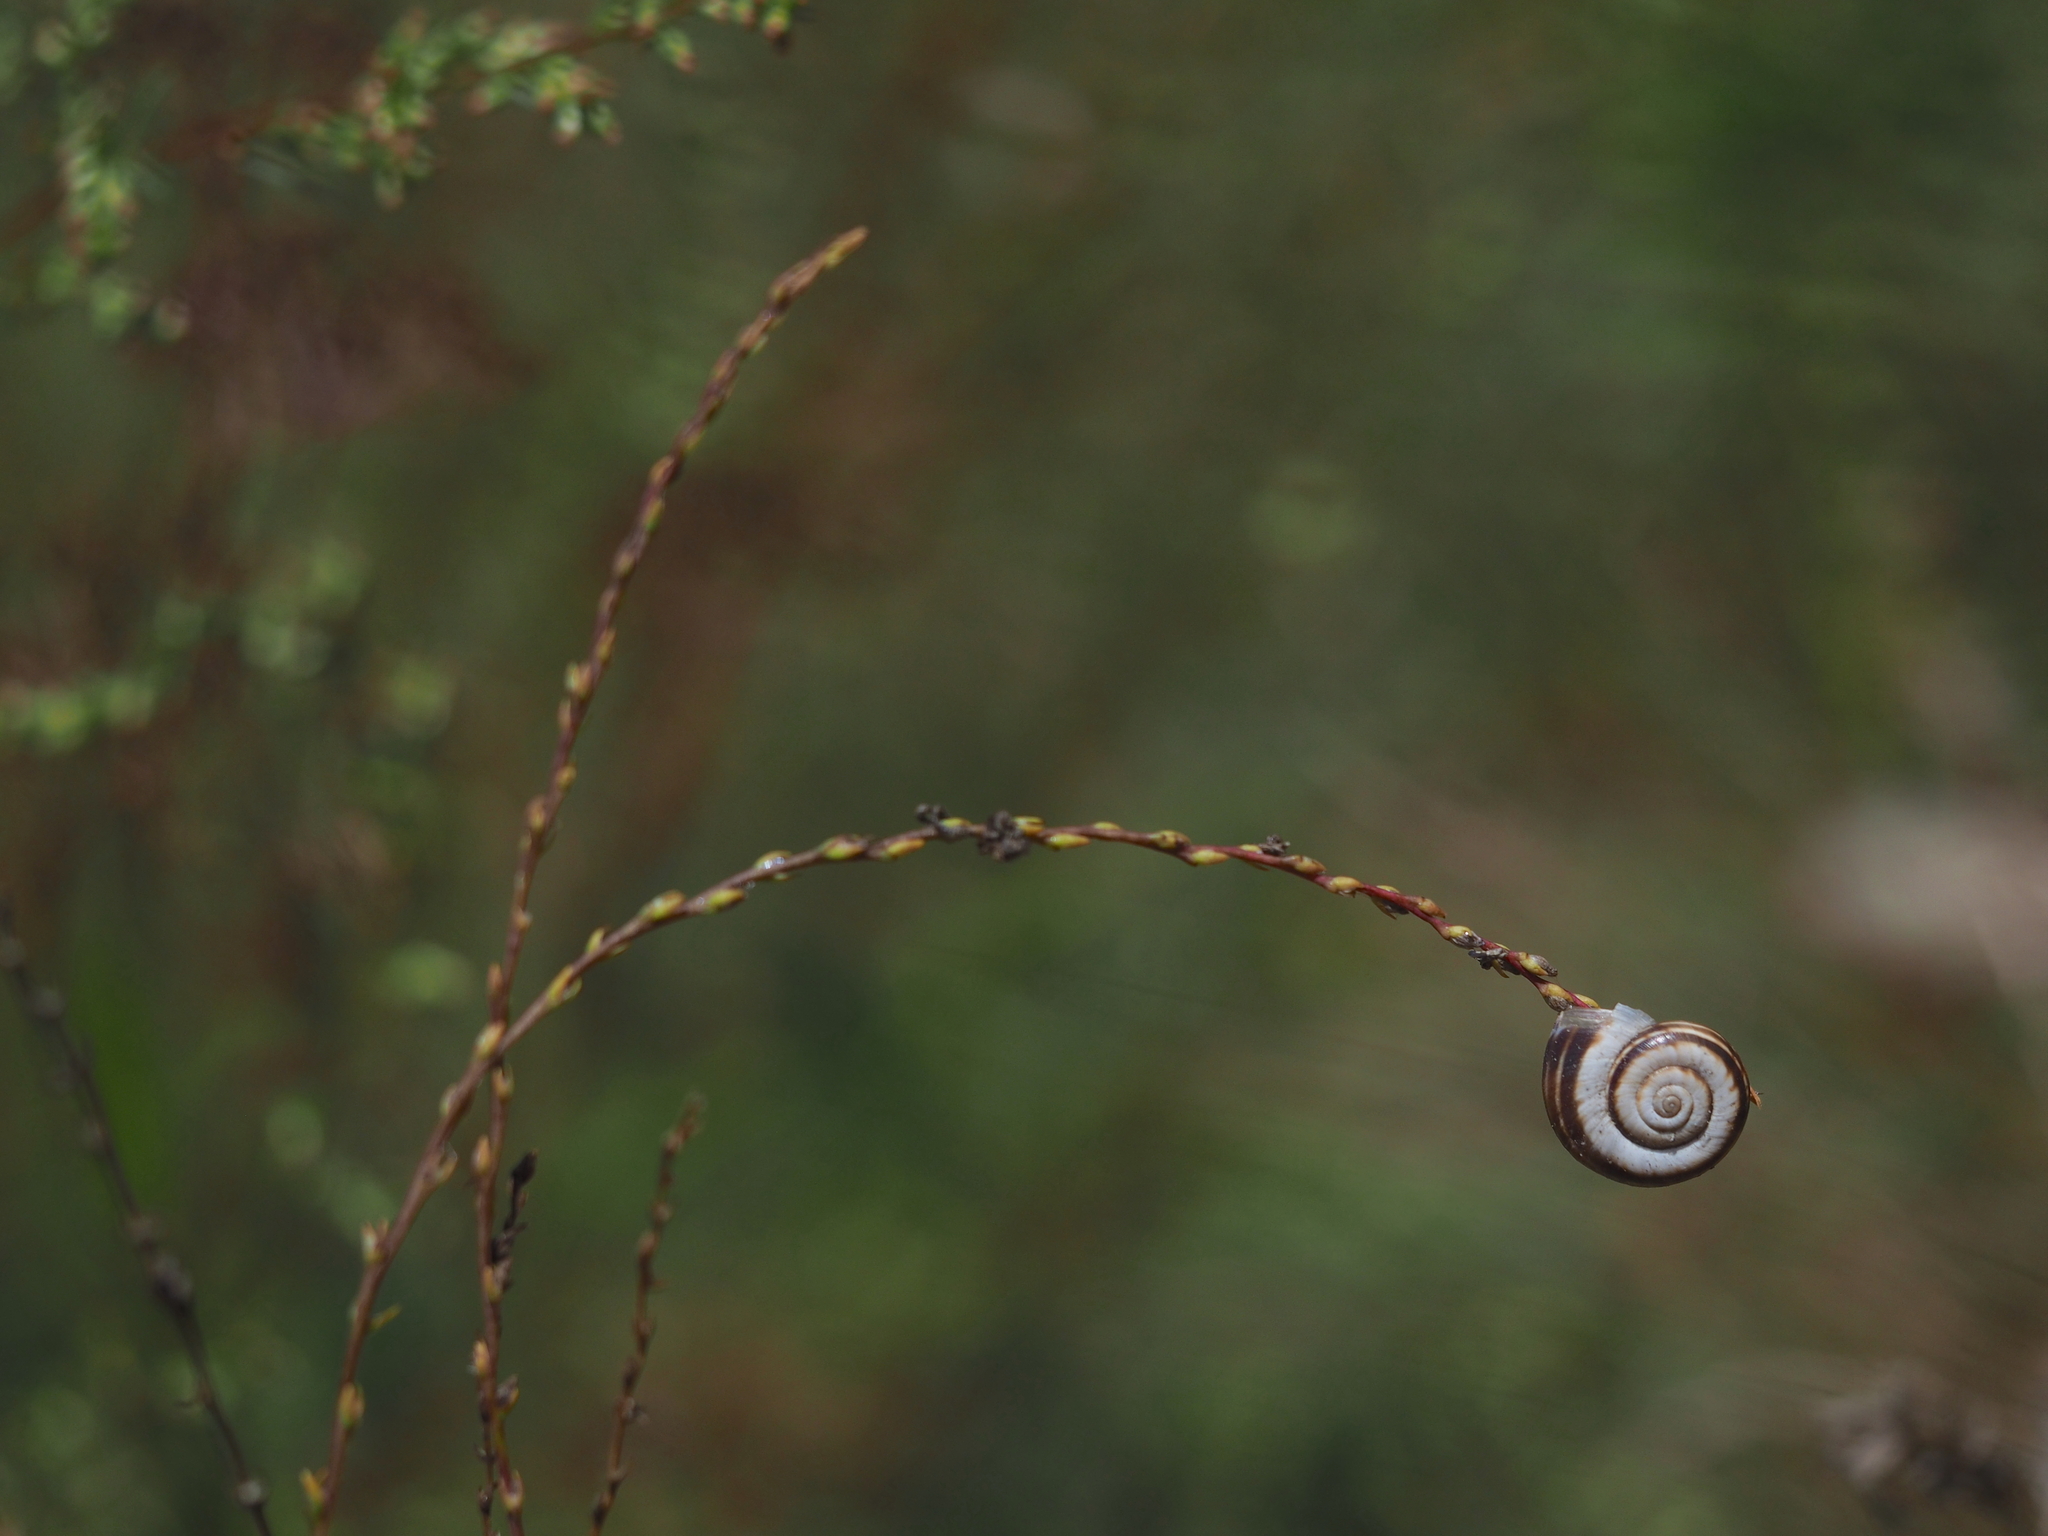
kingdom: Plantae
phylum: Tracheophyta
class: Magnoliopsida
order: Malvales
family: Thymelaeaceae
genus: Thymelaea
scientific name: Thymelaea passerina
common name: Annual thymelaea
